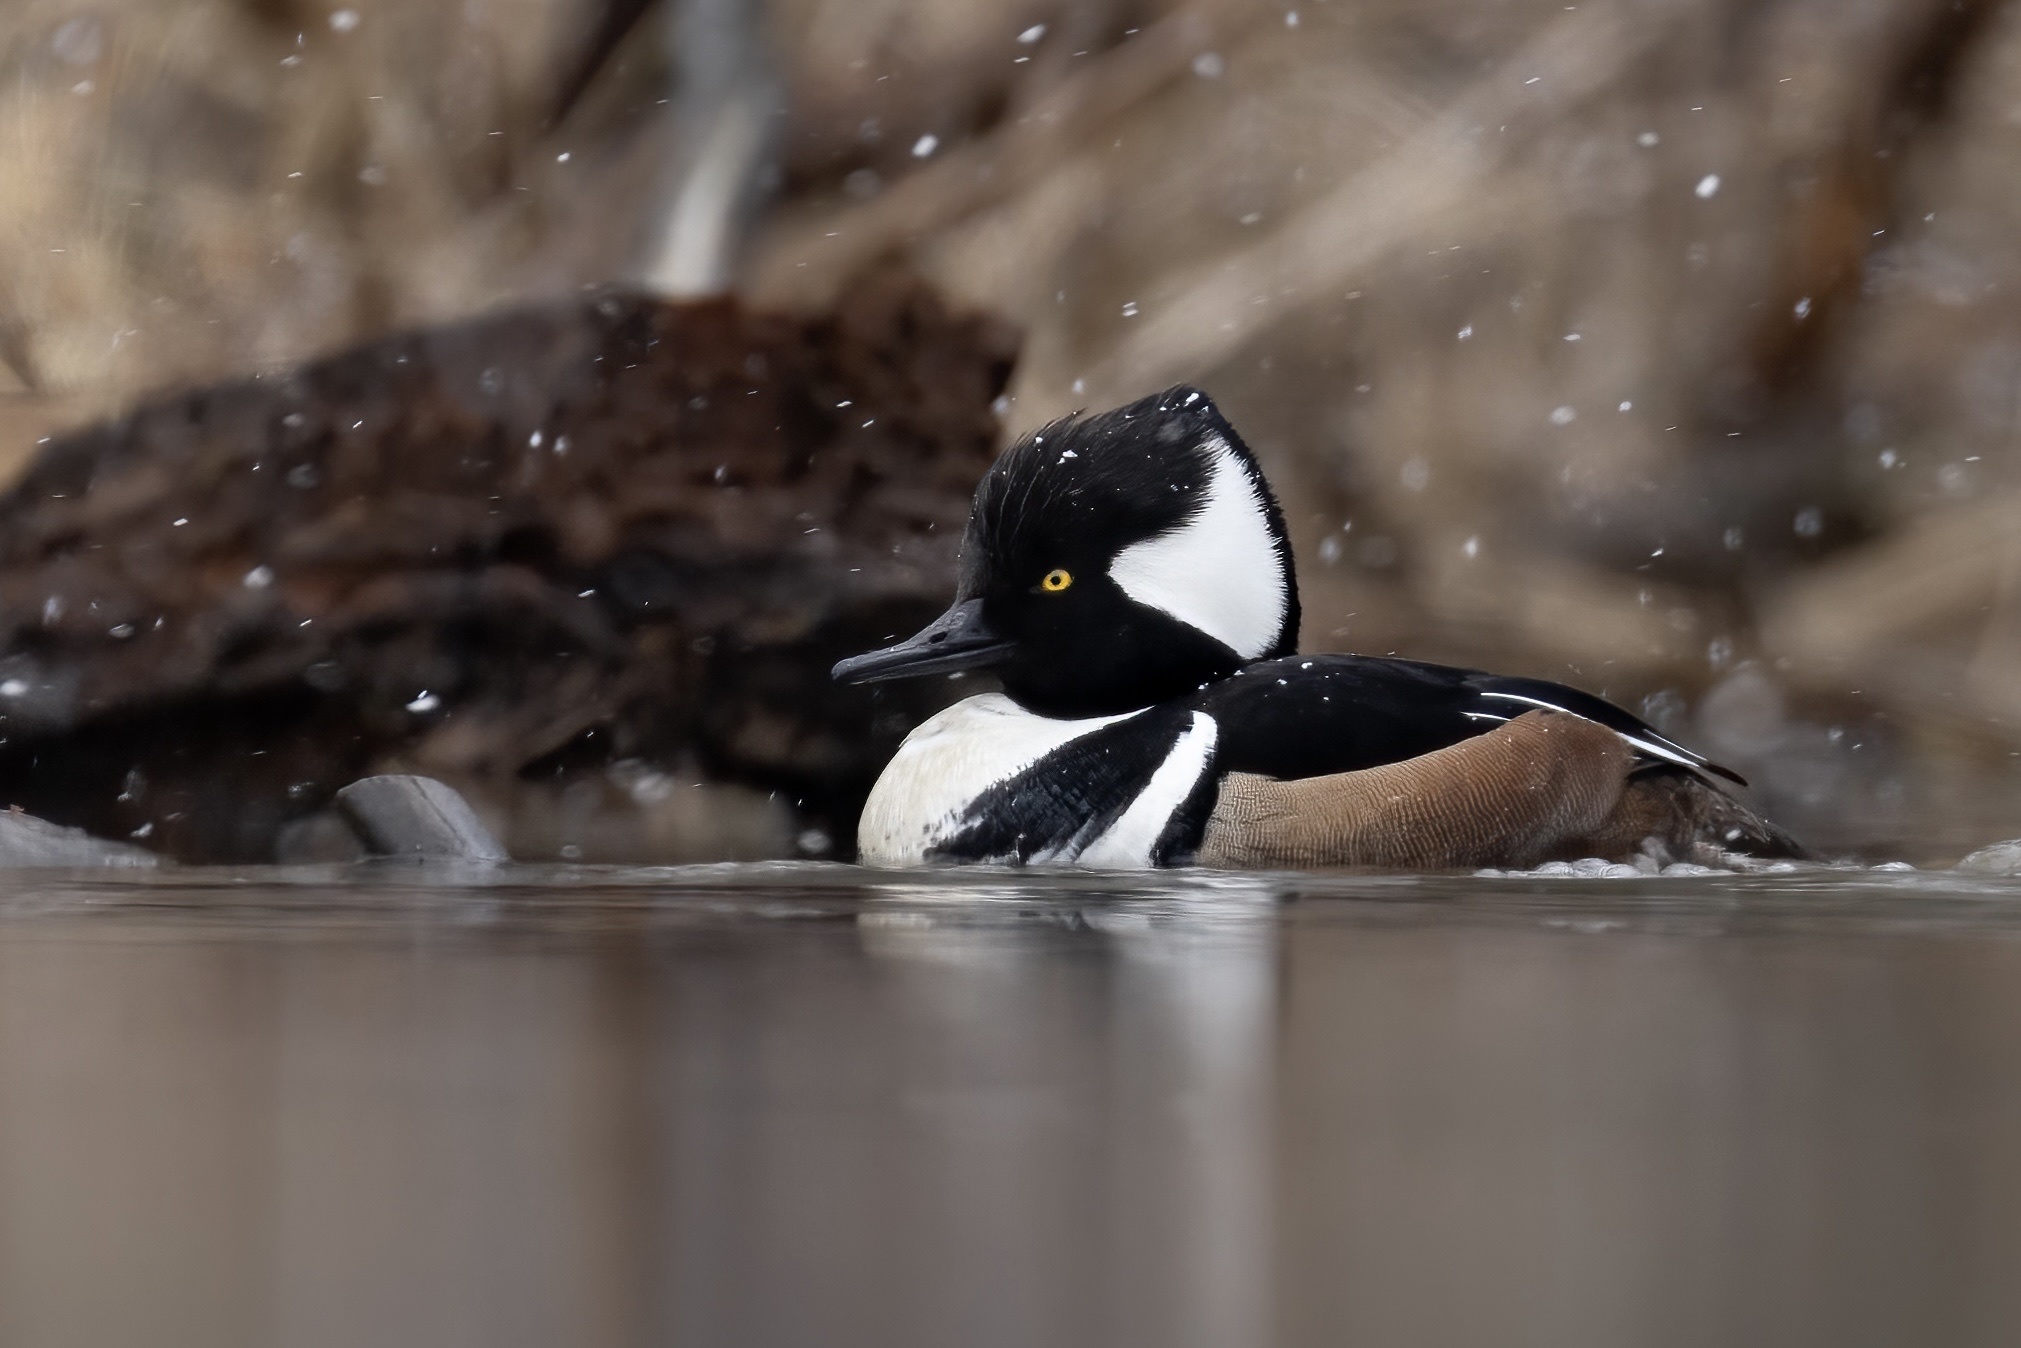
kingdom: Animalia
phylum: Chordata
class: Aves
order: Anseriformes
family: Anatidae
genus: Lophodytes
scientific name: Lophodytes cucullatus
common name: Hooded merganser
